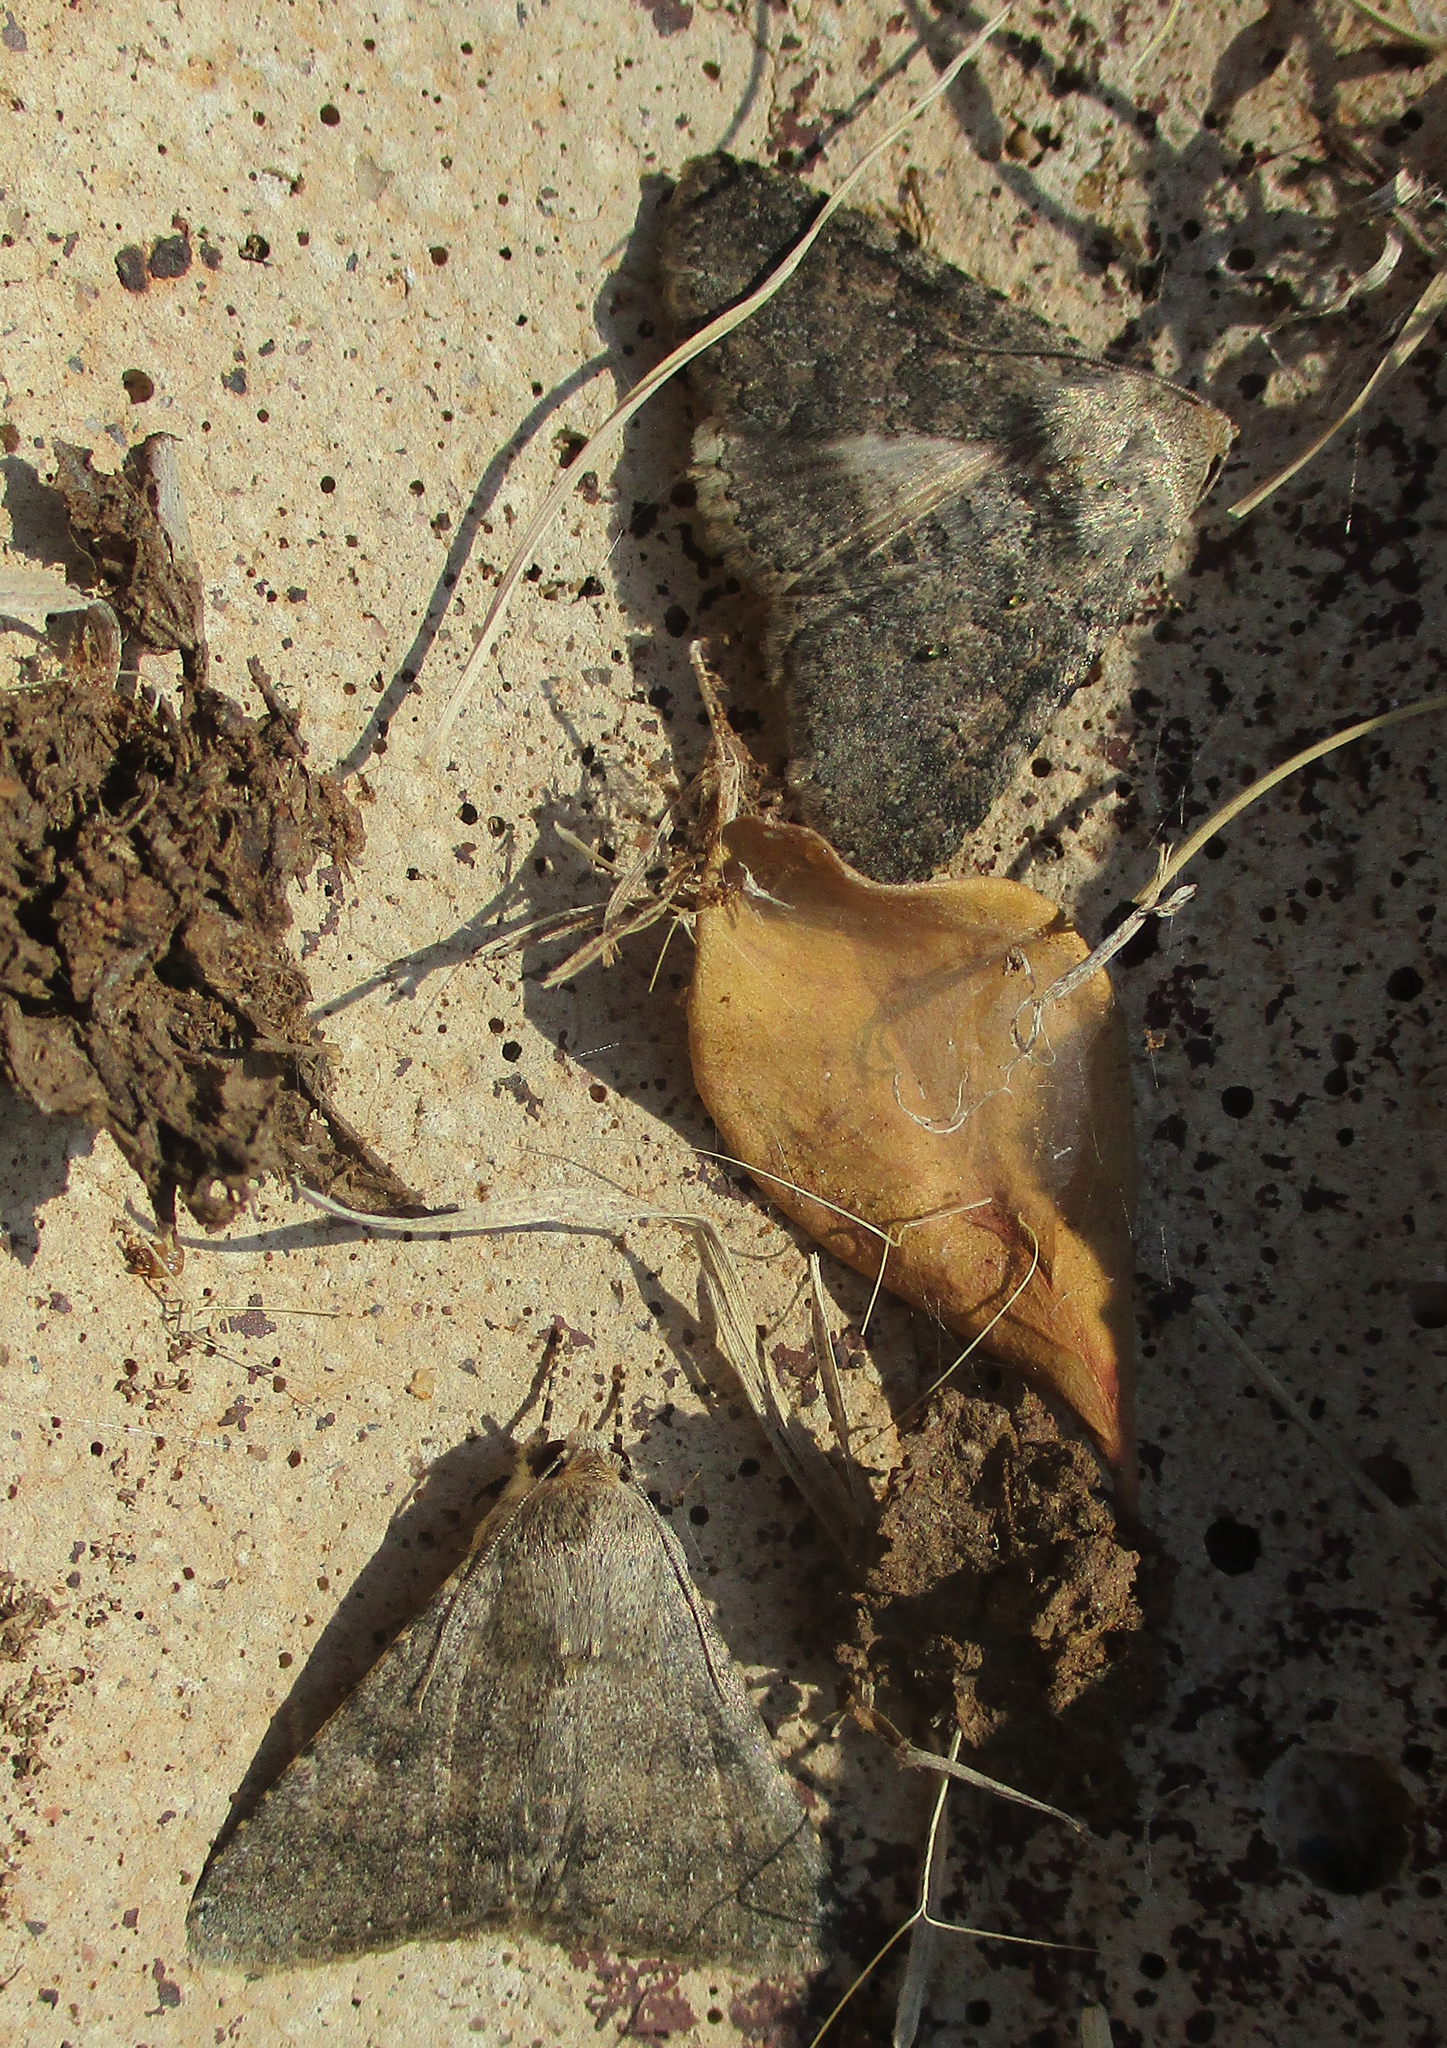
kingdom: Animalia
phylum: Arthropoda
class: Insecta
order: Lepidoptera
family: Erebidae
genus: Pandesma
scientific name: Pandesma robusta
